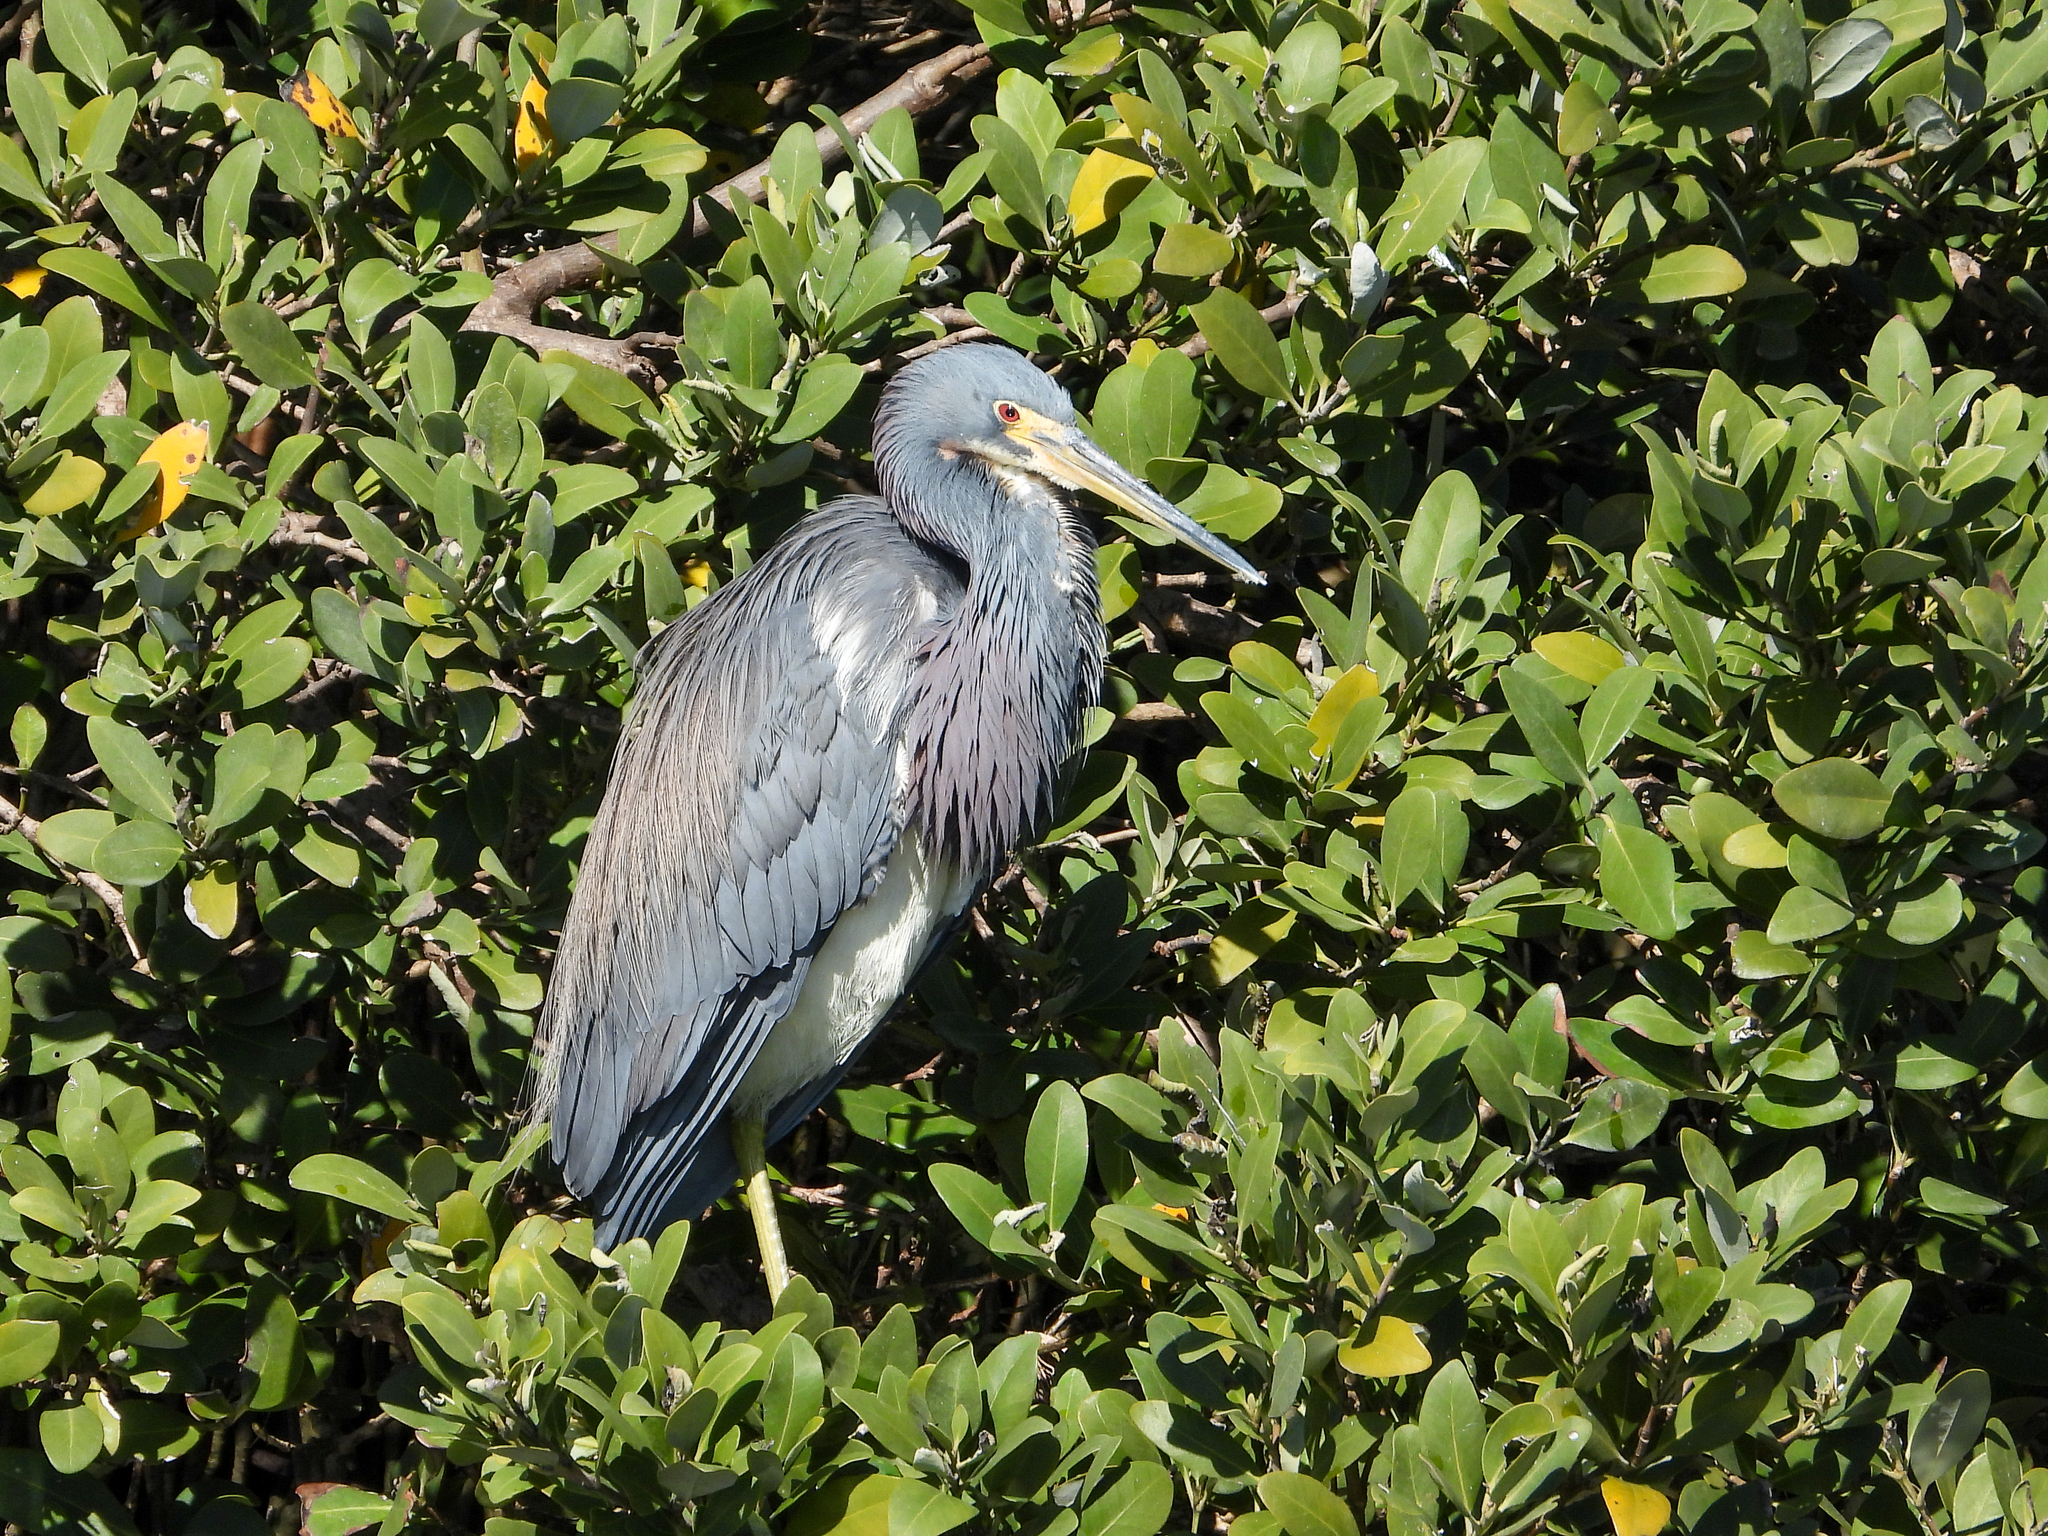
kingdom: Animalia
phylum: Chordata
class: Aves
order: Pelecaniformes
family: Ardeidae
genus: Egretta
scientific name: Egretta tricolor
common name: Tricolored heron
